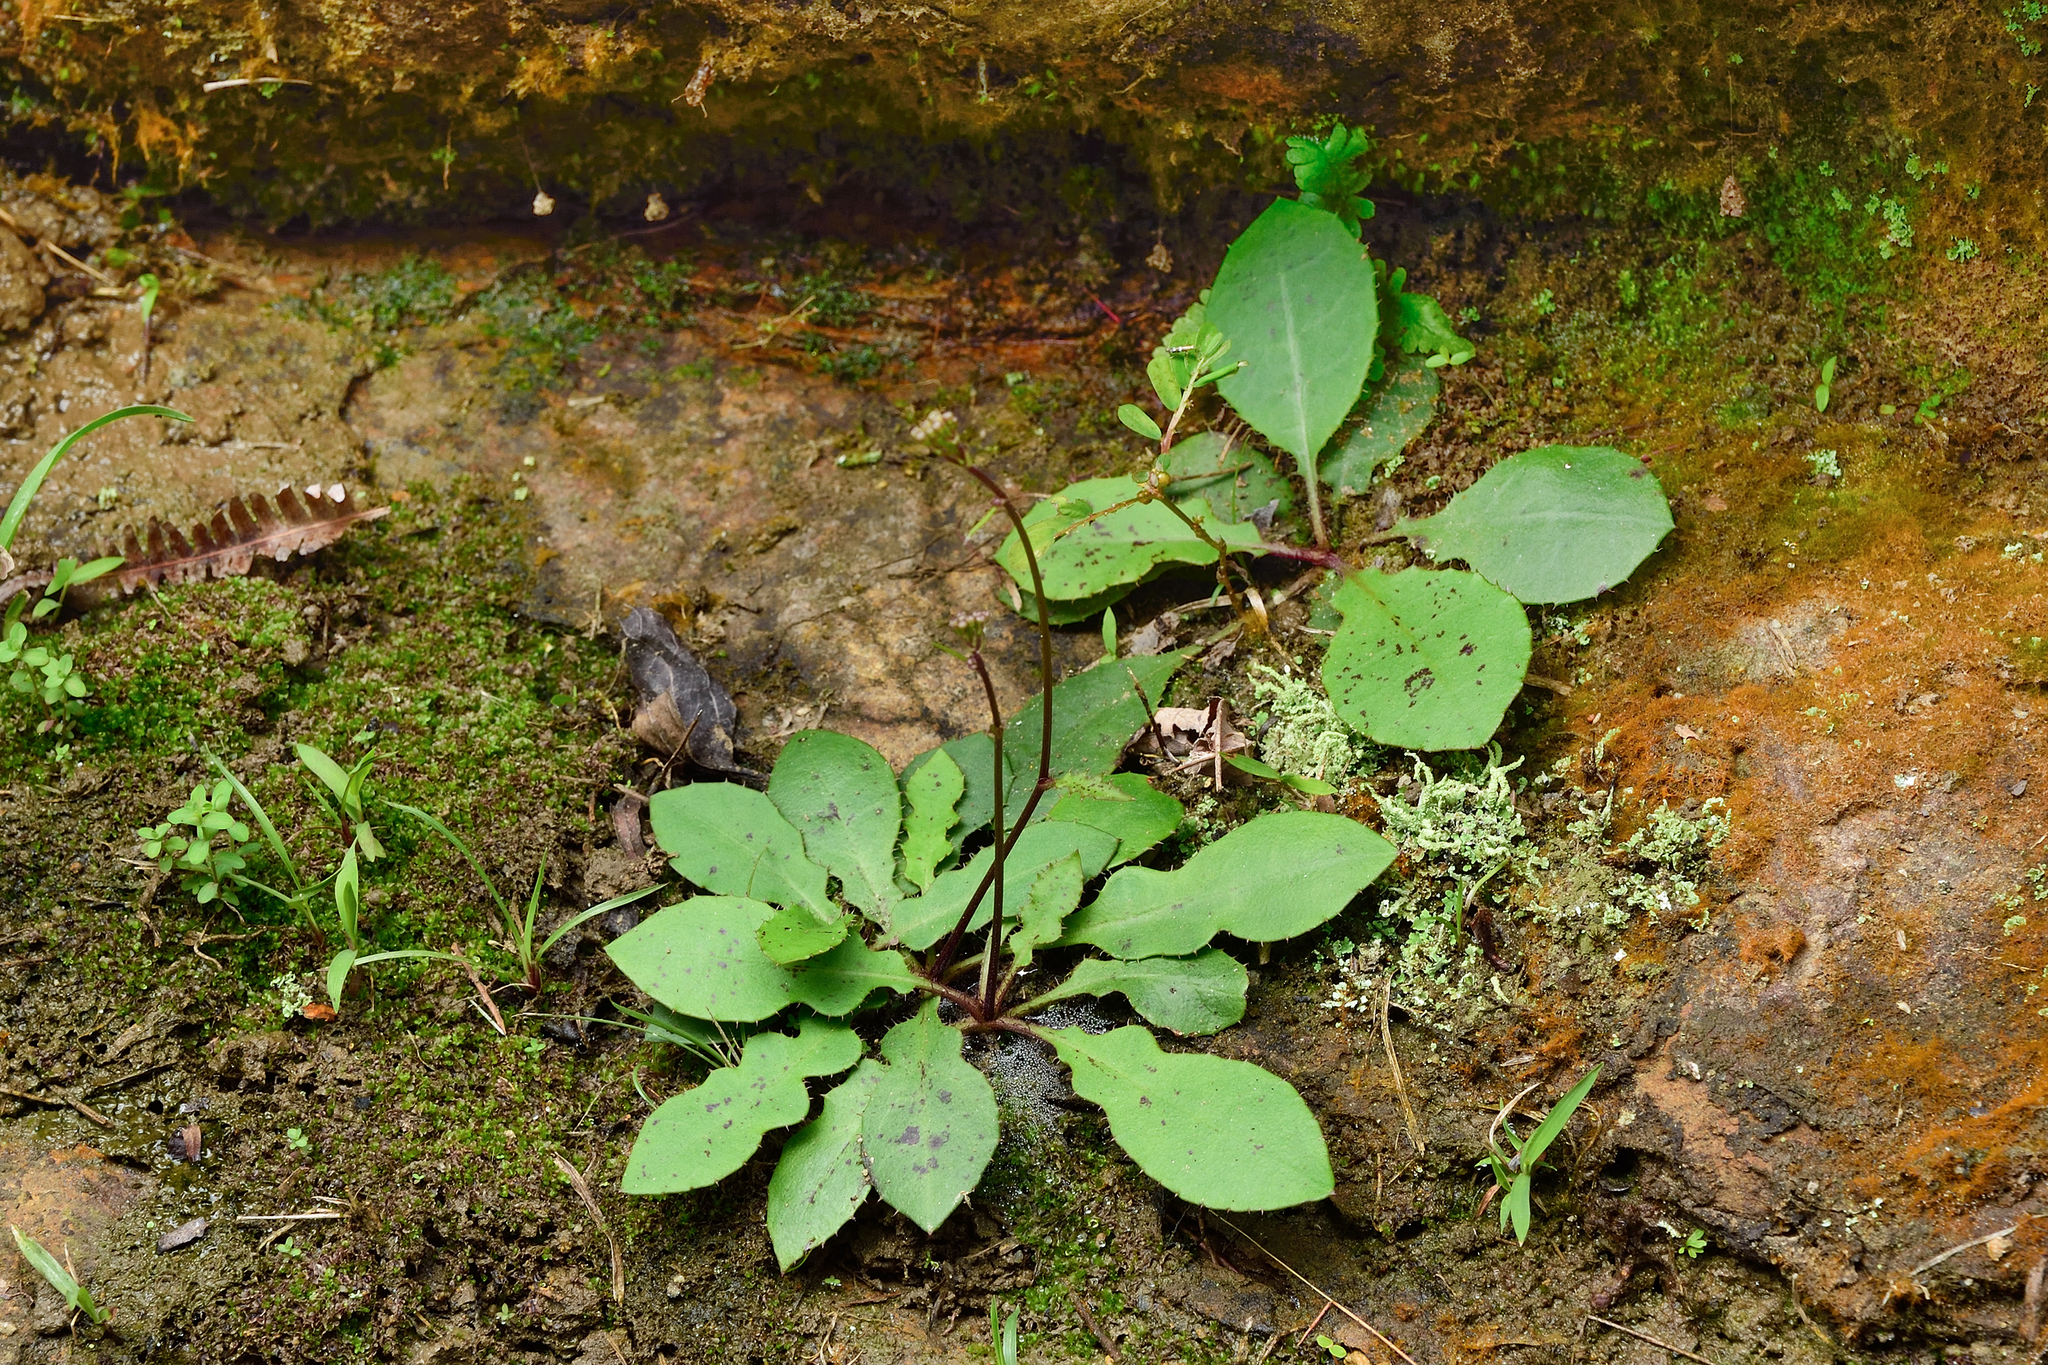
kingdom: Plantae
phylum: Tracheophyta
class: Magnoliopsida
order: Asterales
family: Asteraceae
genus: Ixeridium
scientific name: Ixeridium laevigatum
